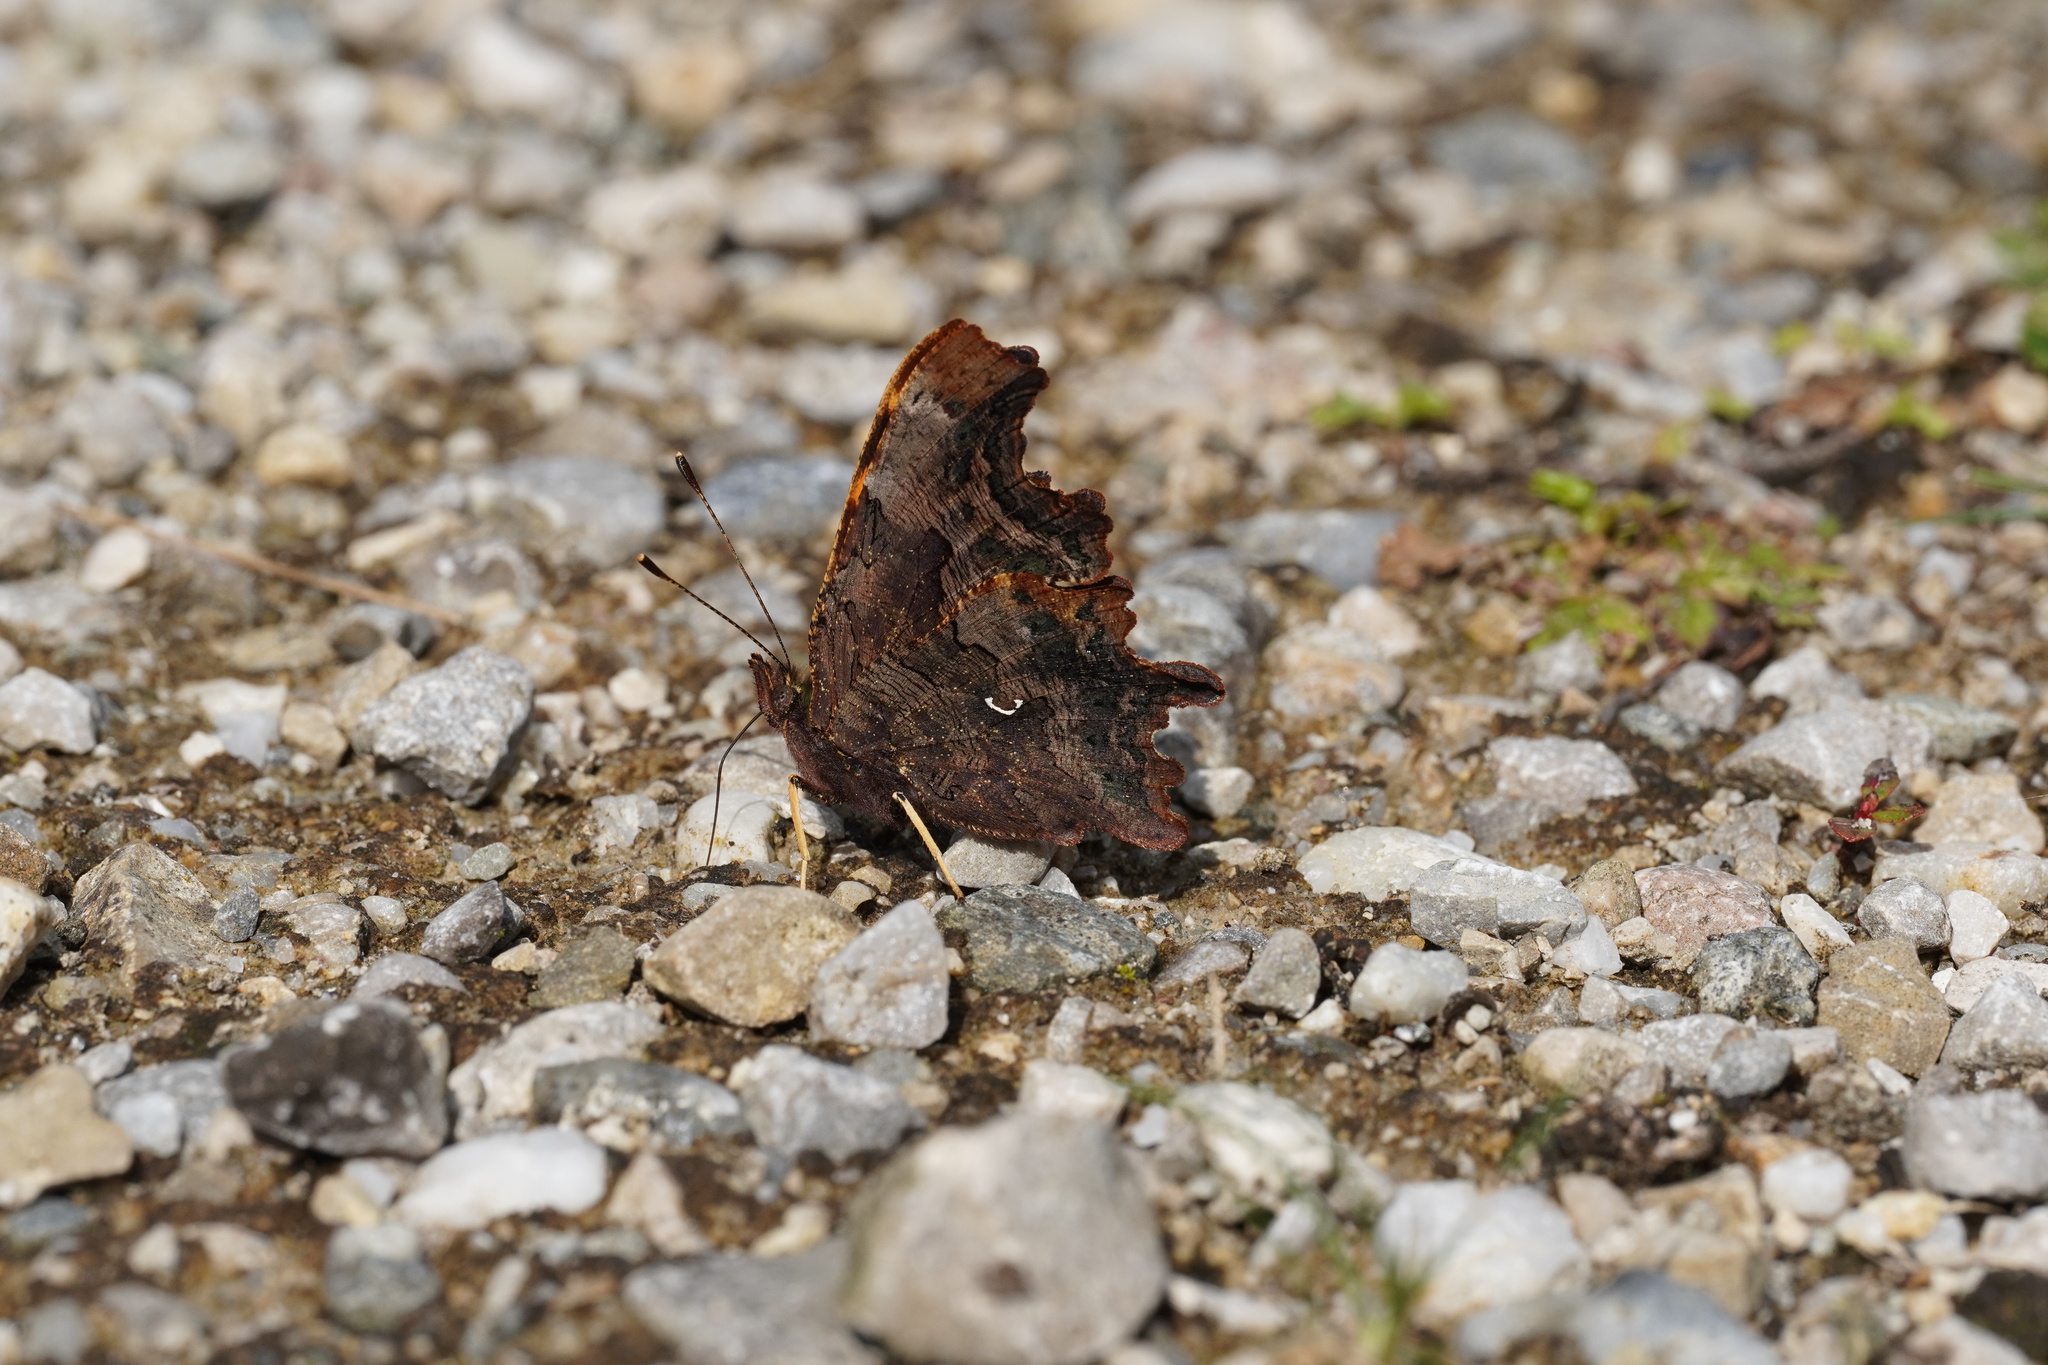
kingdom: Animalia
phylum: Arthropoda
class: Insecta
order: Lepidoptera
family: Nymphalidae
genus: Polygonia
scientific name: Polygonia c-album
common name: Comma
